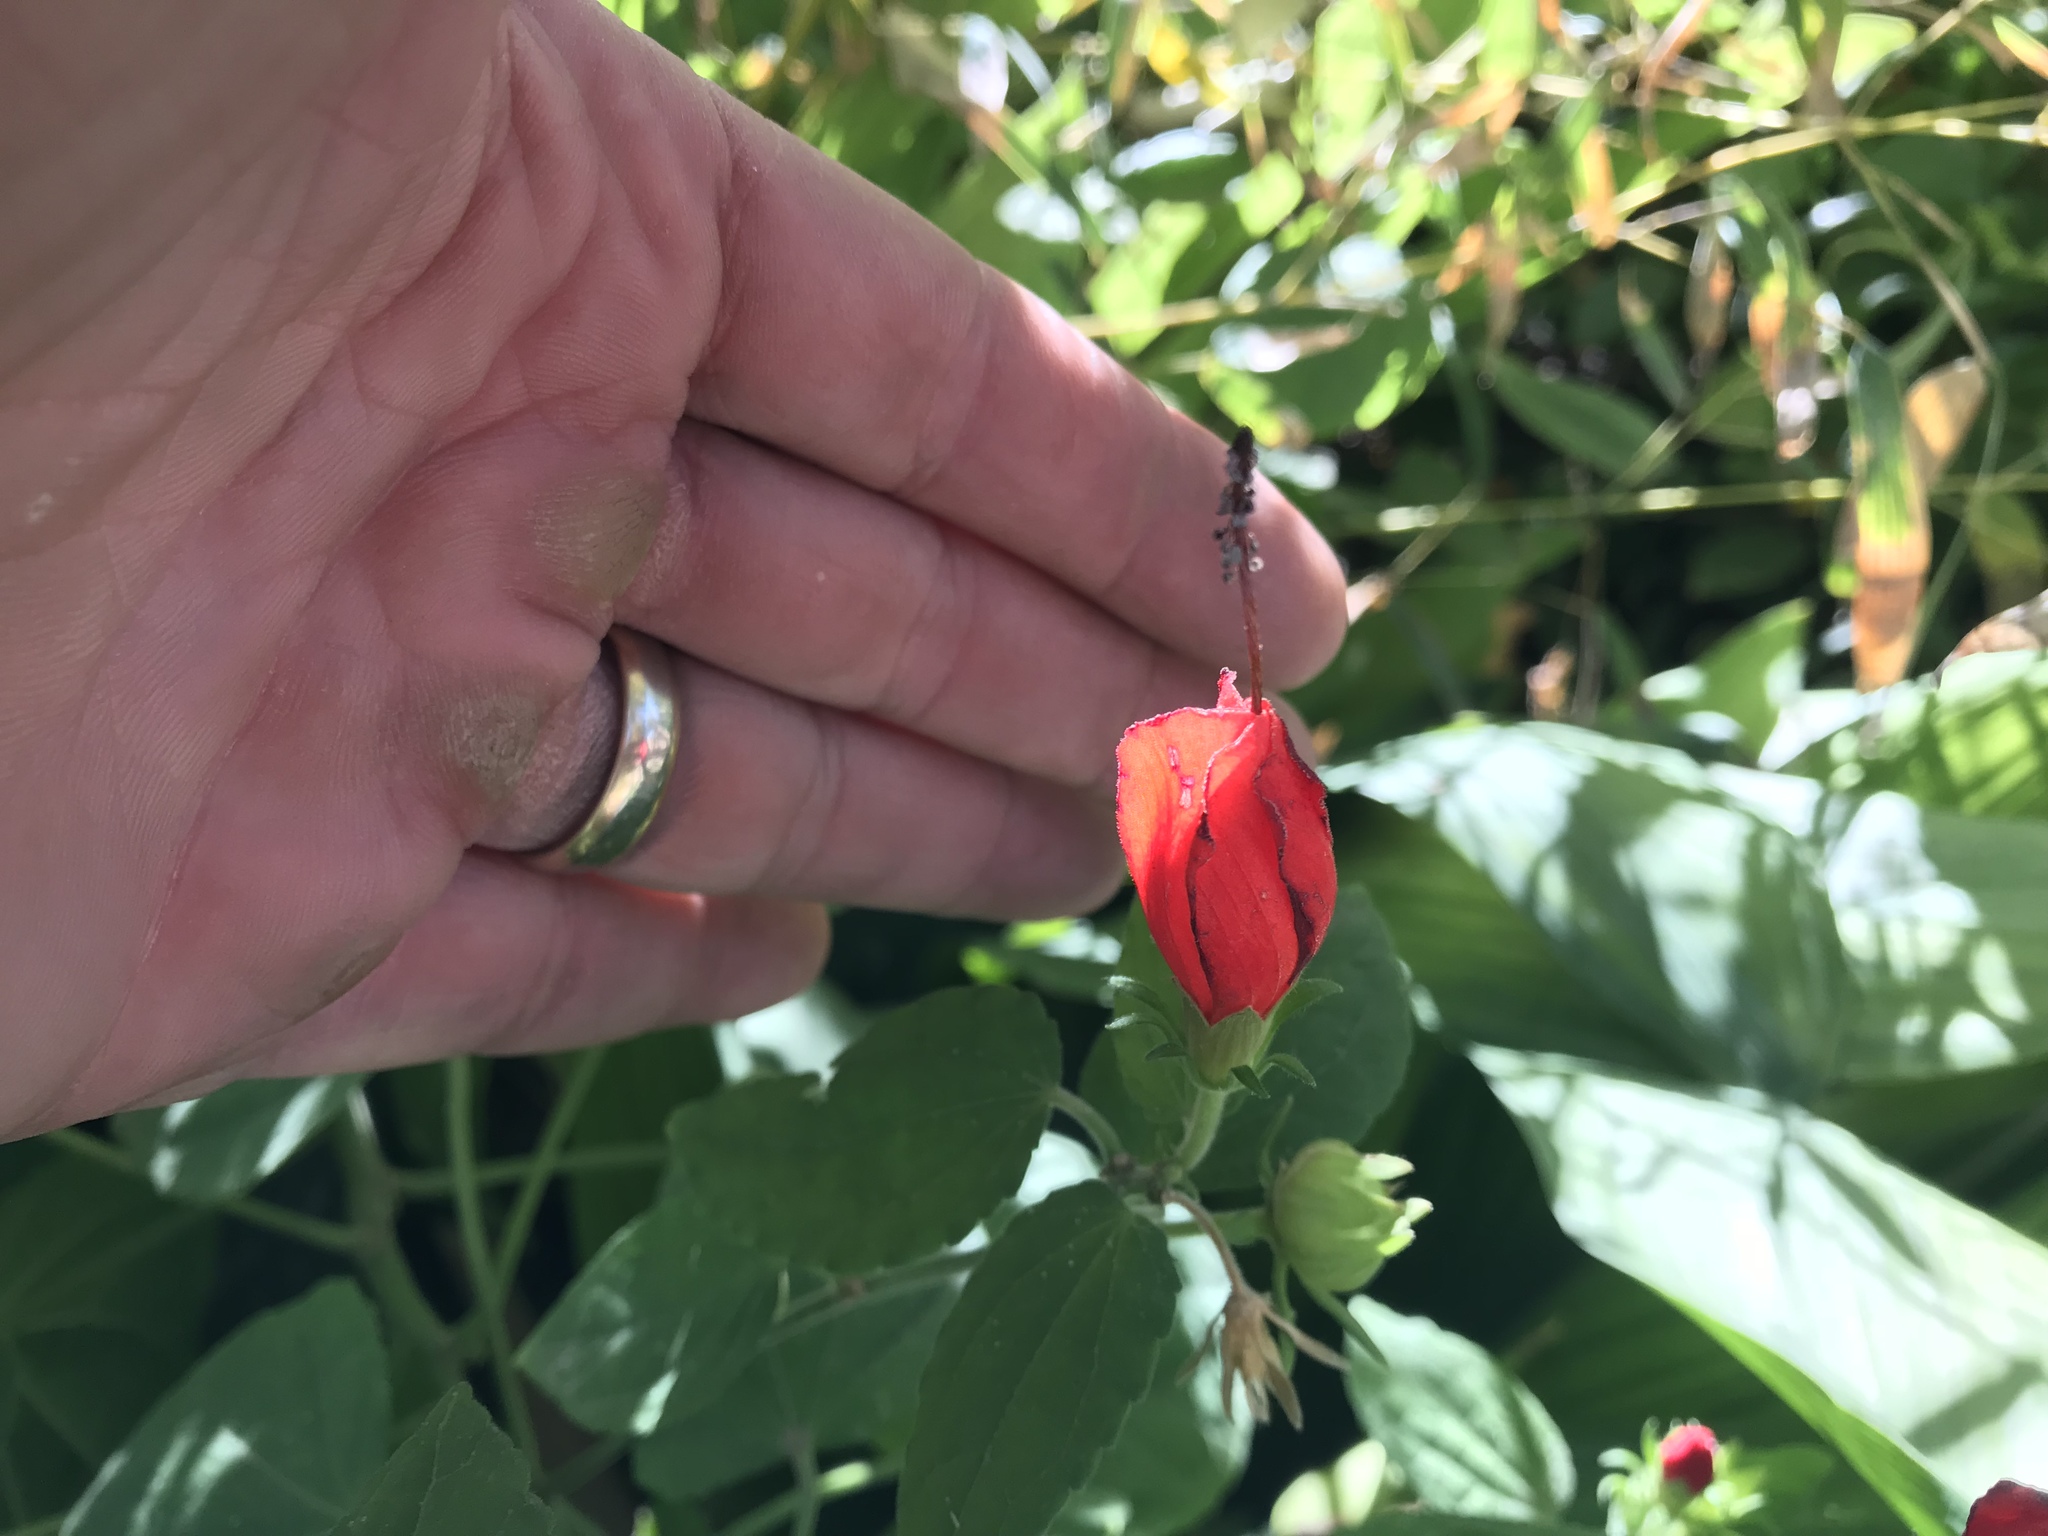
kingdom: Plantae
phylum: Tracheophyta
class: Magnoliopsida
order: Malvales
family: Malvaceae
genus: Malvaviscus
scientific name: Malvaviscus arboreus
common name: Wax mallow
